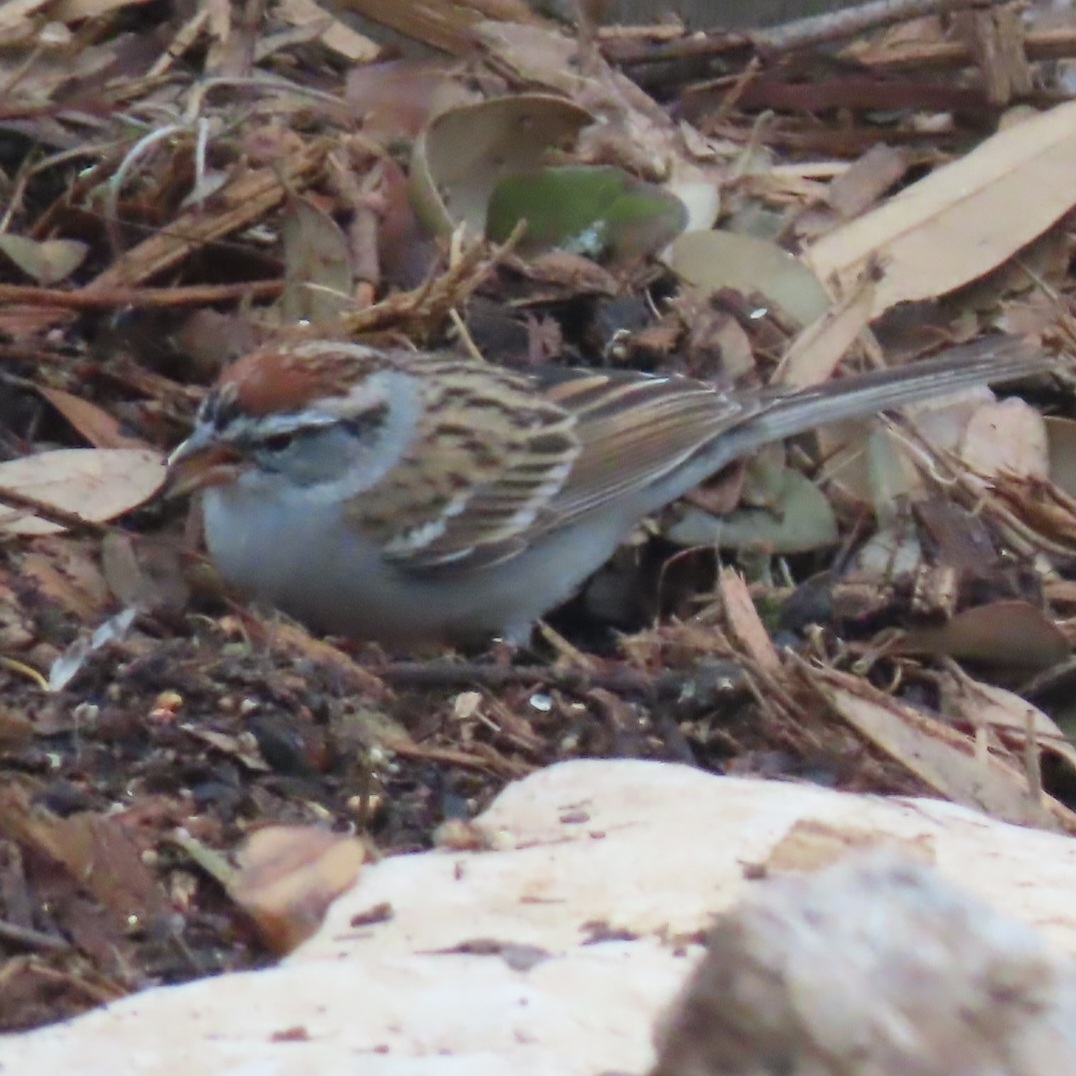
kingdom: Animalia
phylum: Chordata
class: Aves
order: Passeriformes
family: Passerellidae
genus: Spizella
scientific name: Spizella passerina
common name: Chipping sparrow
